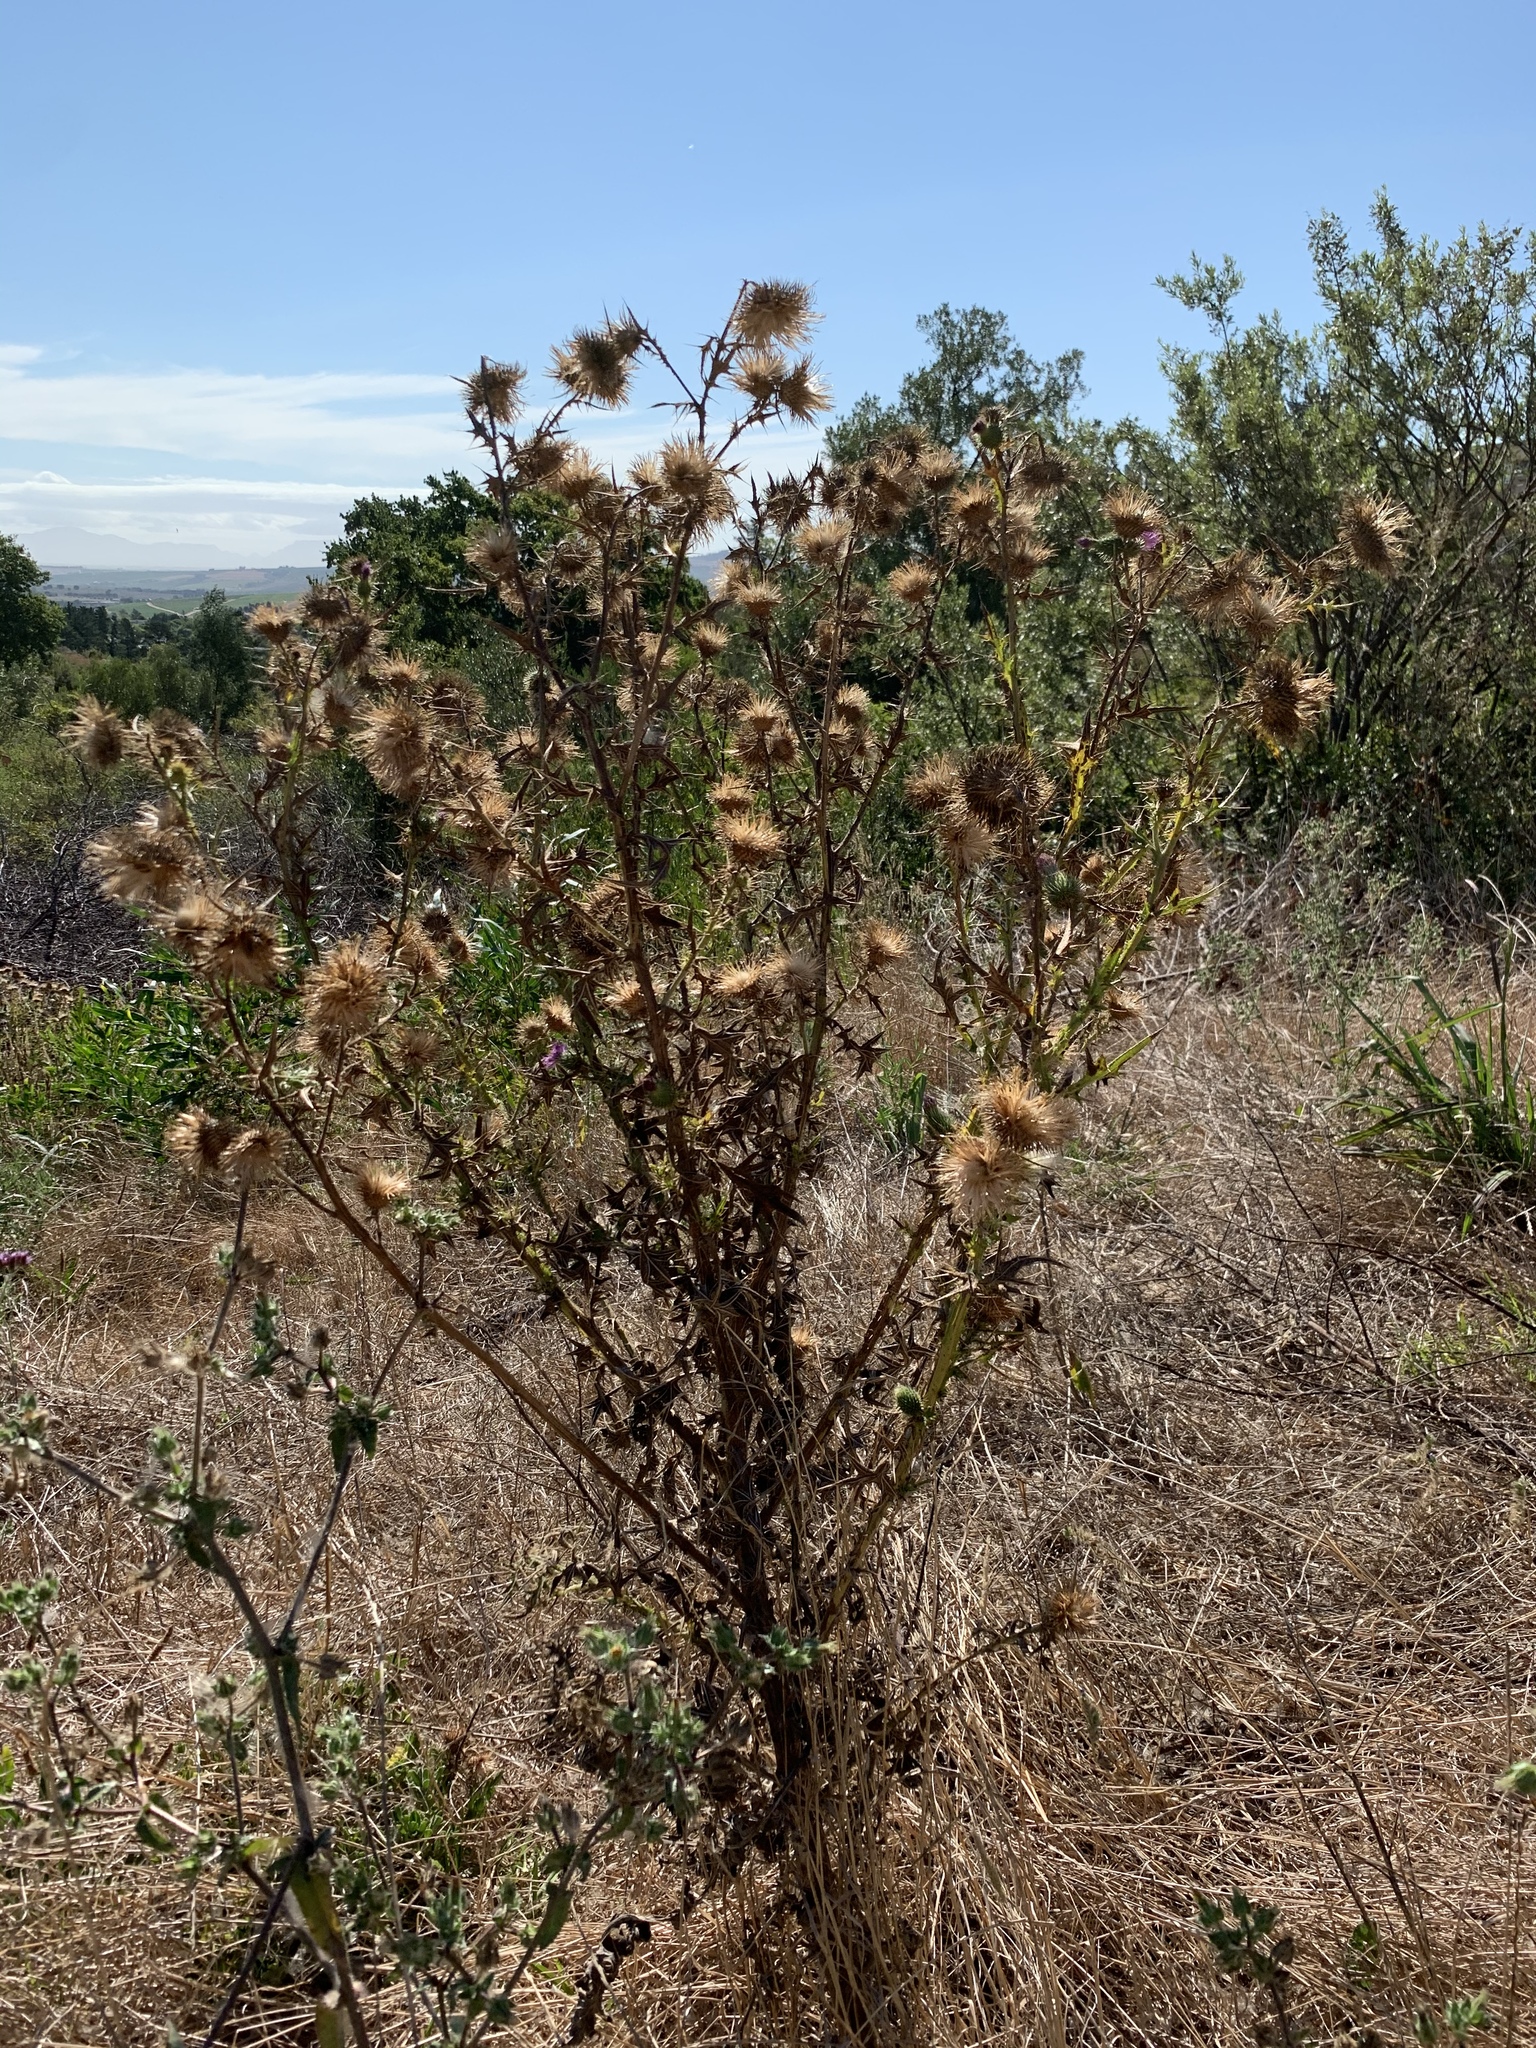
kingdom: Plantae
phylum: Tracheophyta
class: Magnoliopsida
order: Asterales
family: Asteraceae
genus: Cirsium
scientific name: Cirsium vulgare
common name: Bull thistle
